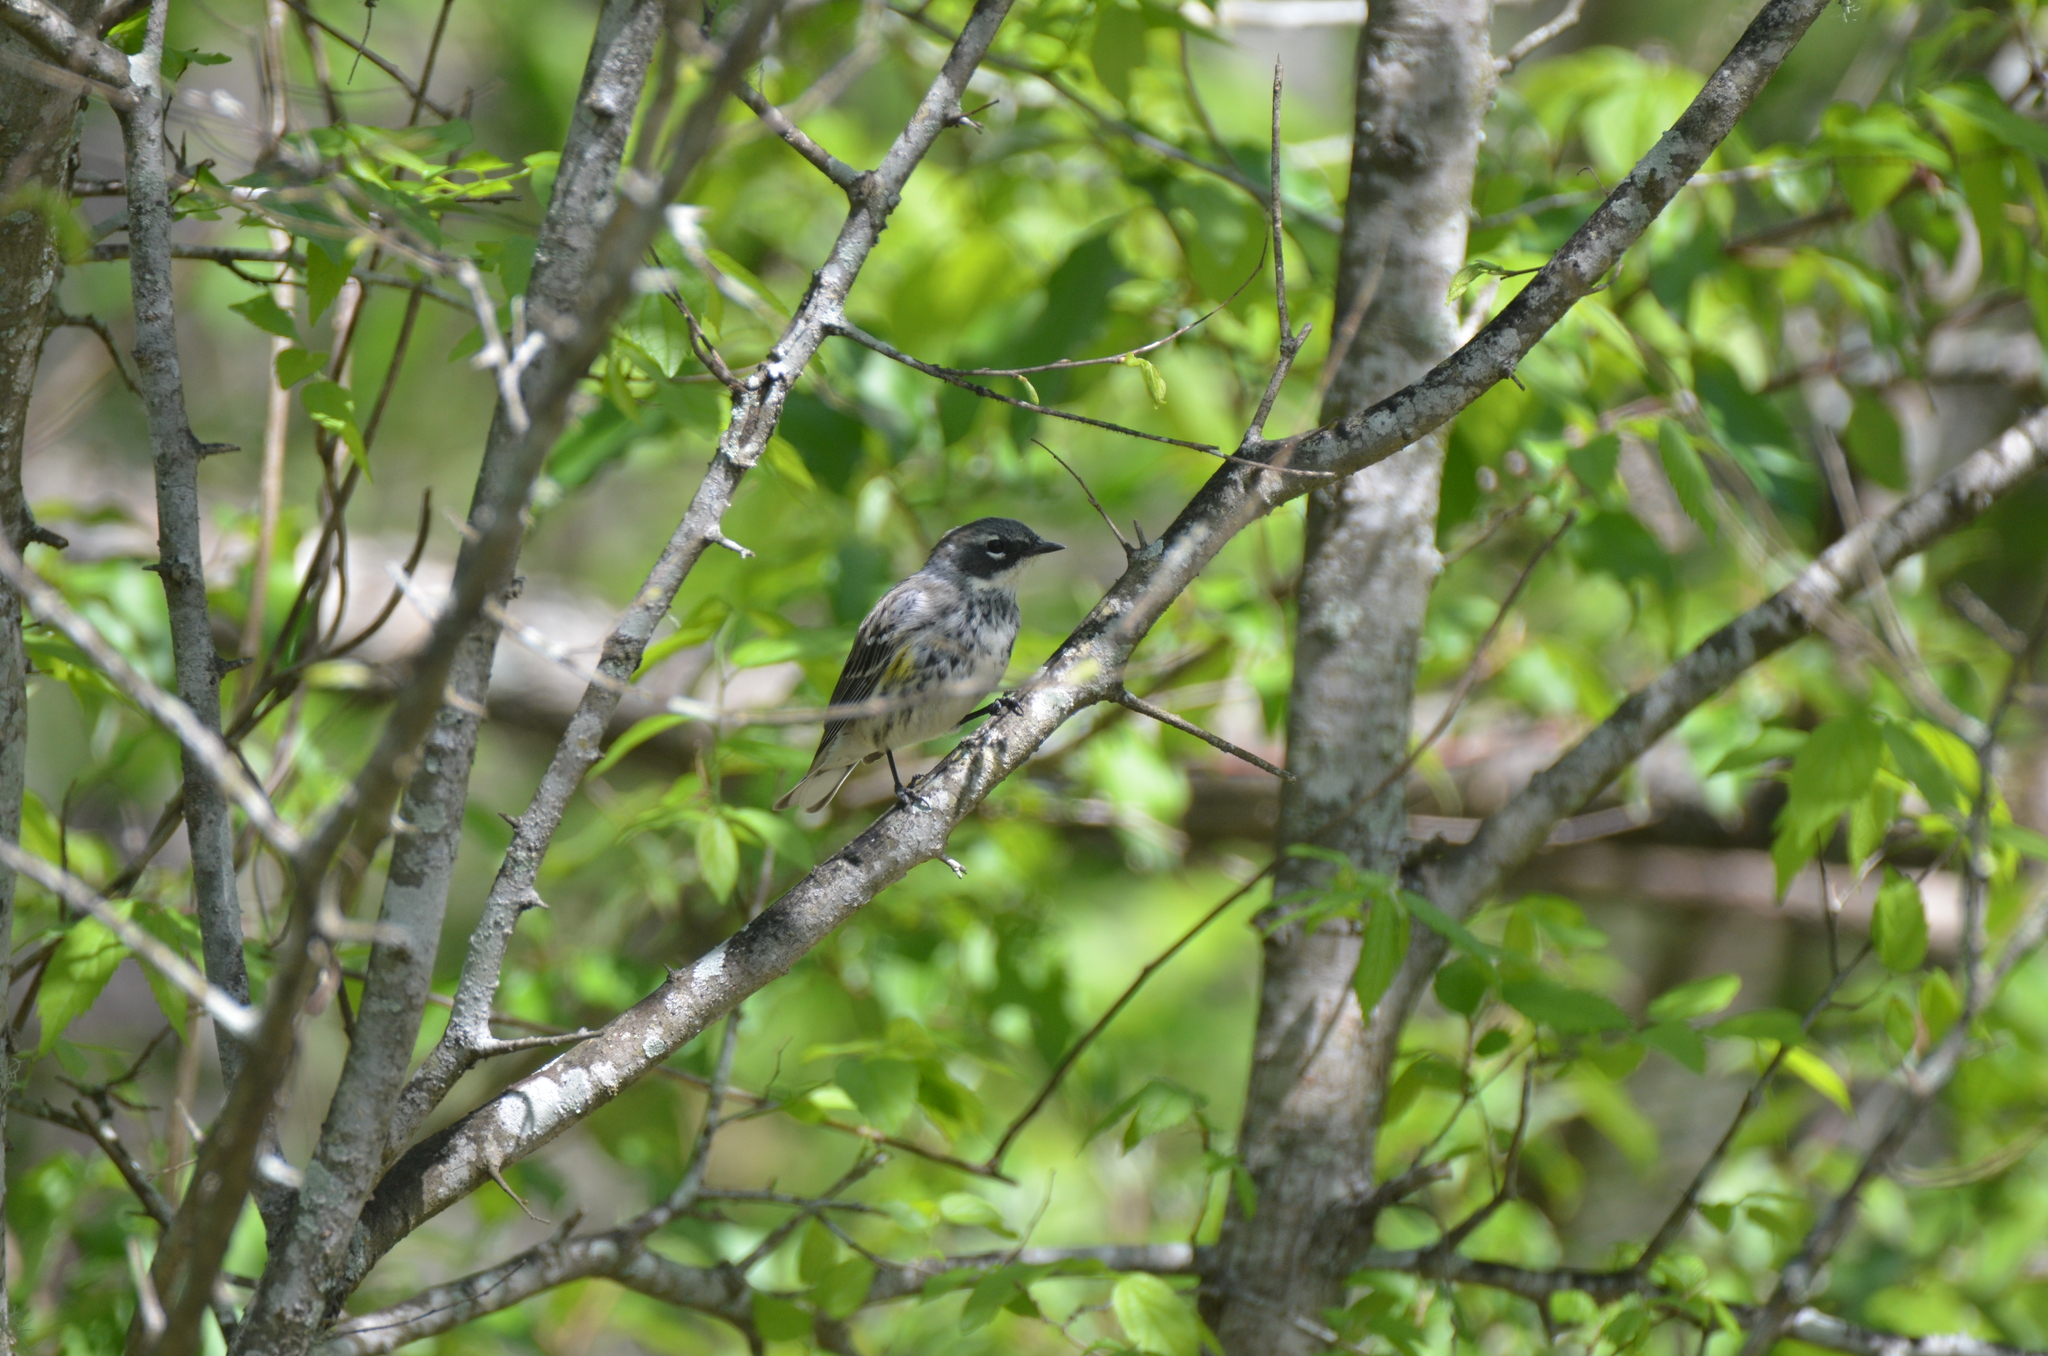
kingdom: Animalia
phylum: Chordata
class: Aves
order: Passeriformes
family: Parulidae
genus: Setophaga
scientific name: Setophaga coronata
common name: Myrtle warbler
